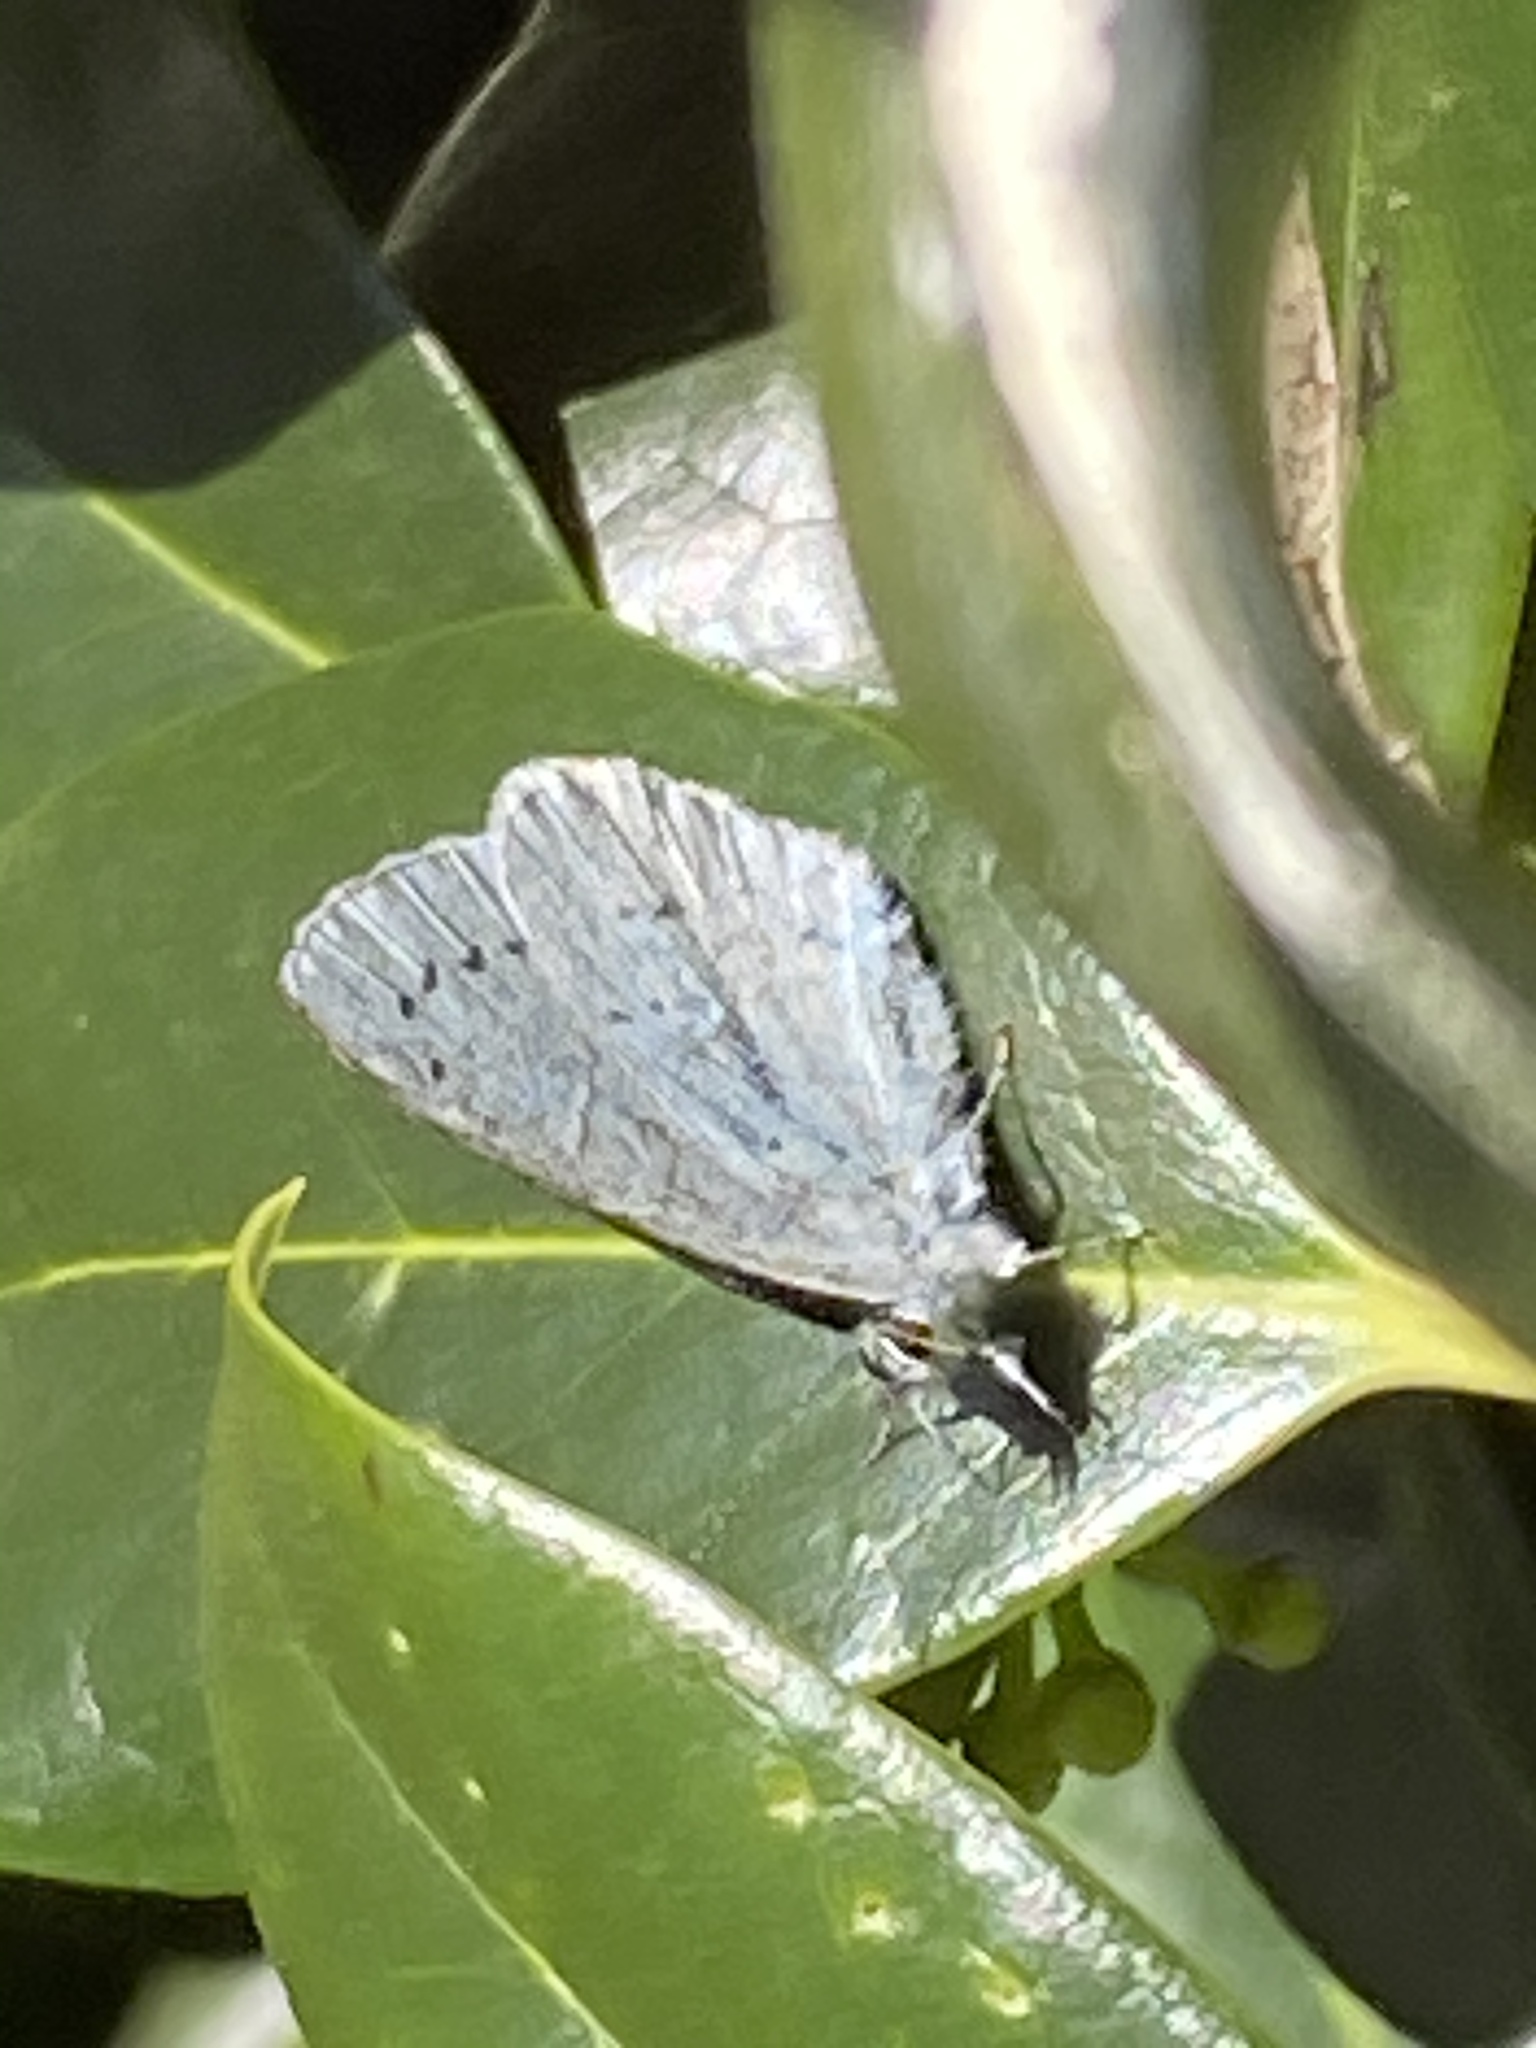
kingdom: Animalia
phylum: Arthropoda
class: Insecta
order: Lepidoptera
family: Lycaenidae
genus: Celastrina
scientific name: Celastrina argiolus
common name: Holly blue
